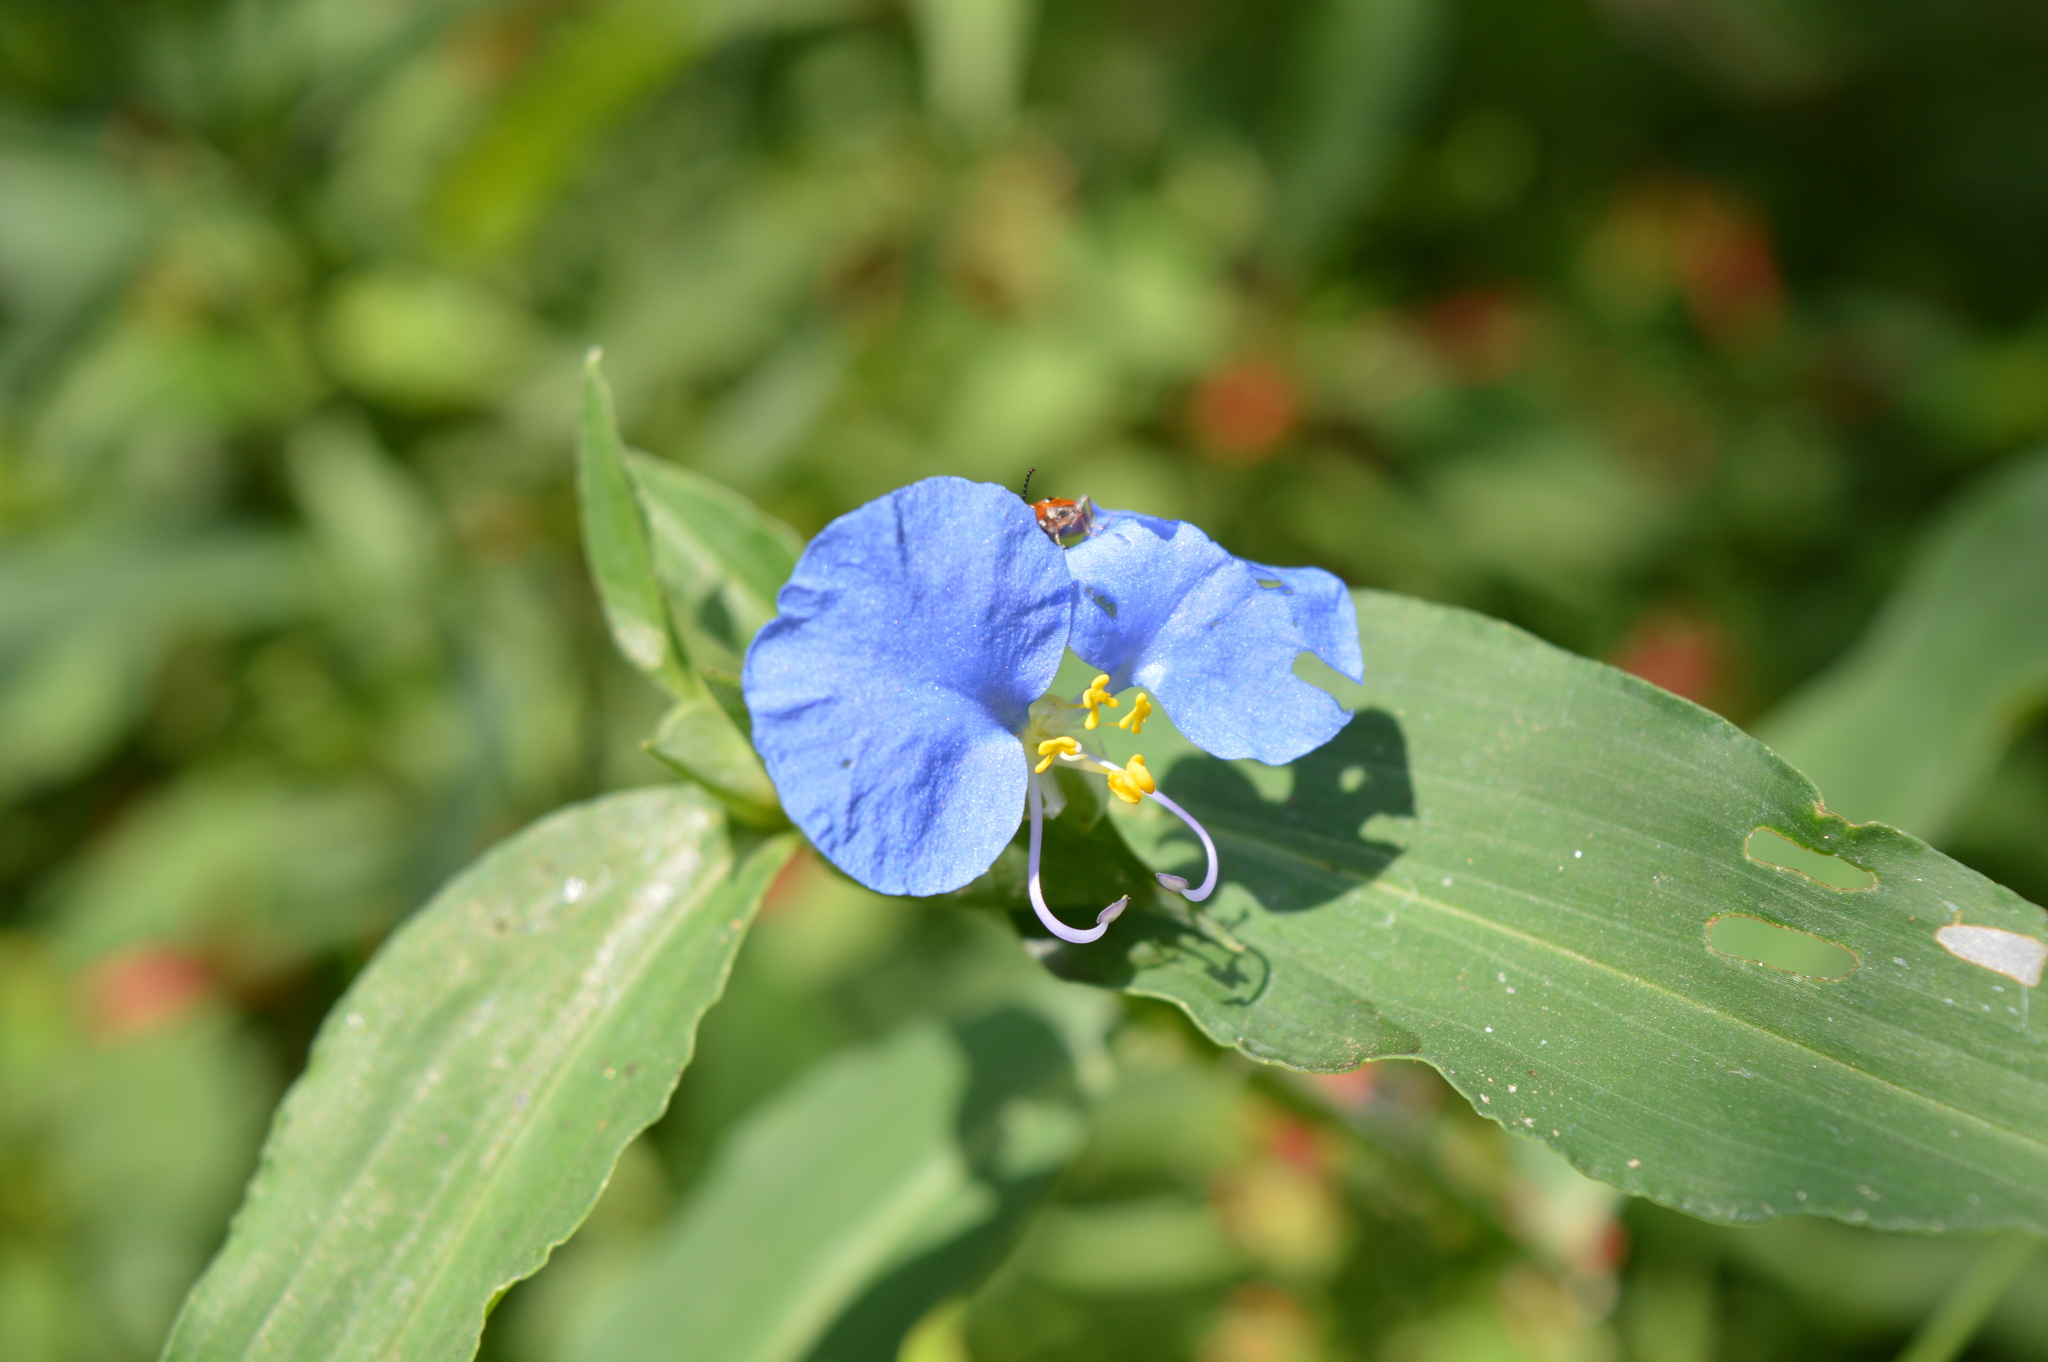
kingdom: Plantae
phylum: Tracheophyta
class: Liliopsida
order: Commelinales
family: Commelinaceae
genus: Commelina
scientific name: Commelina erecta
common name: Blousel blommetjie
